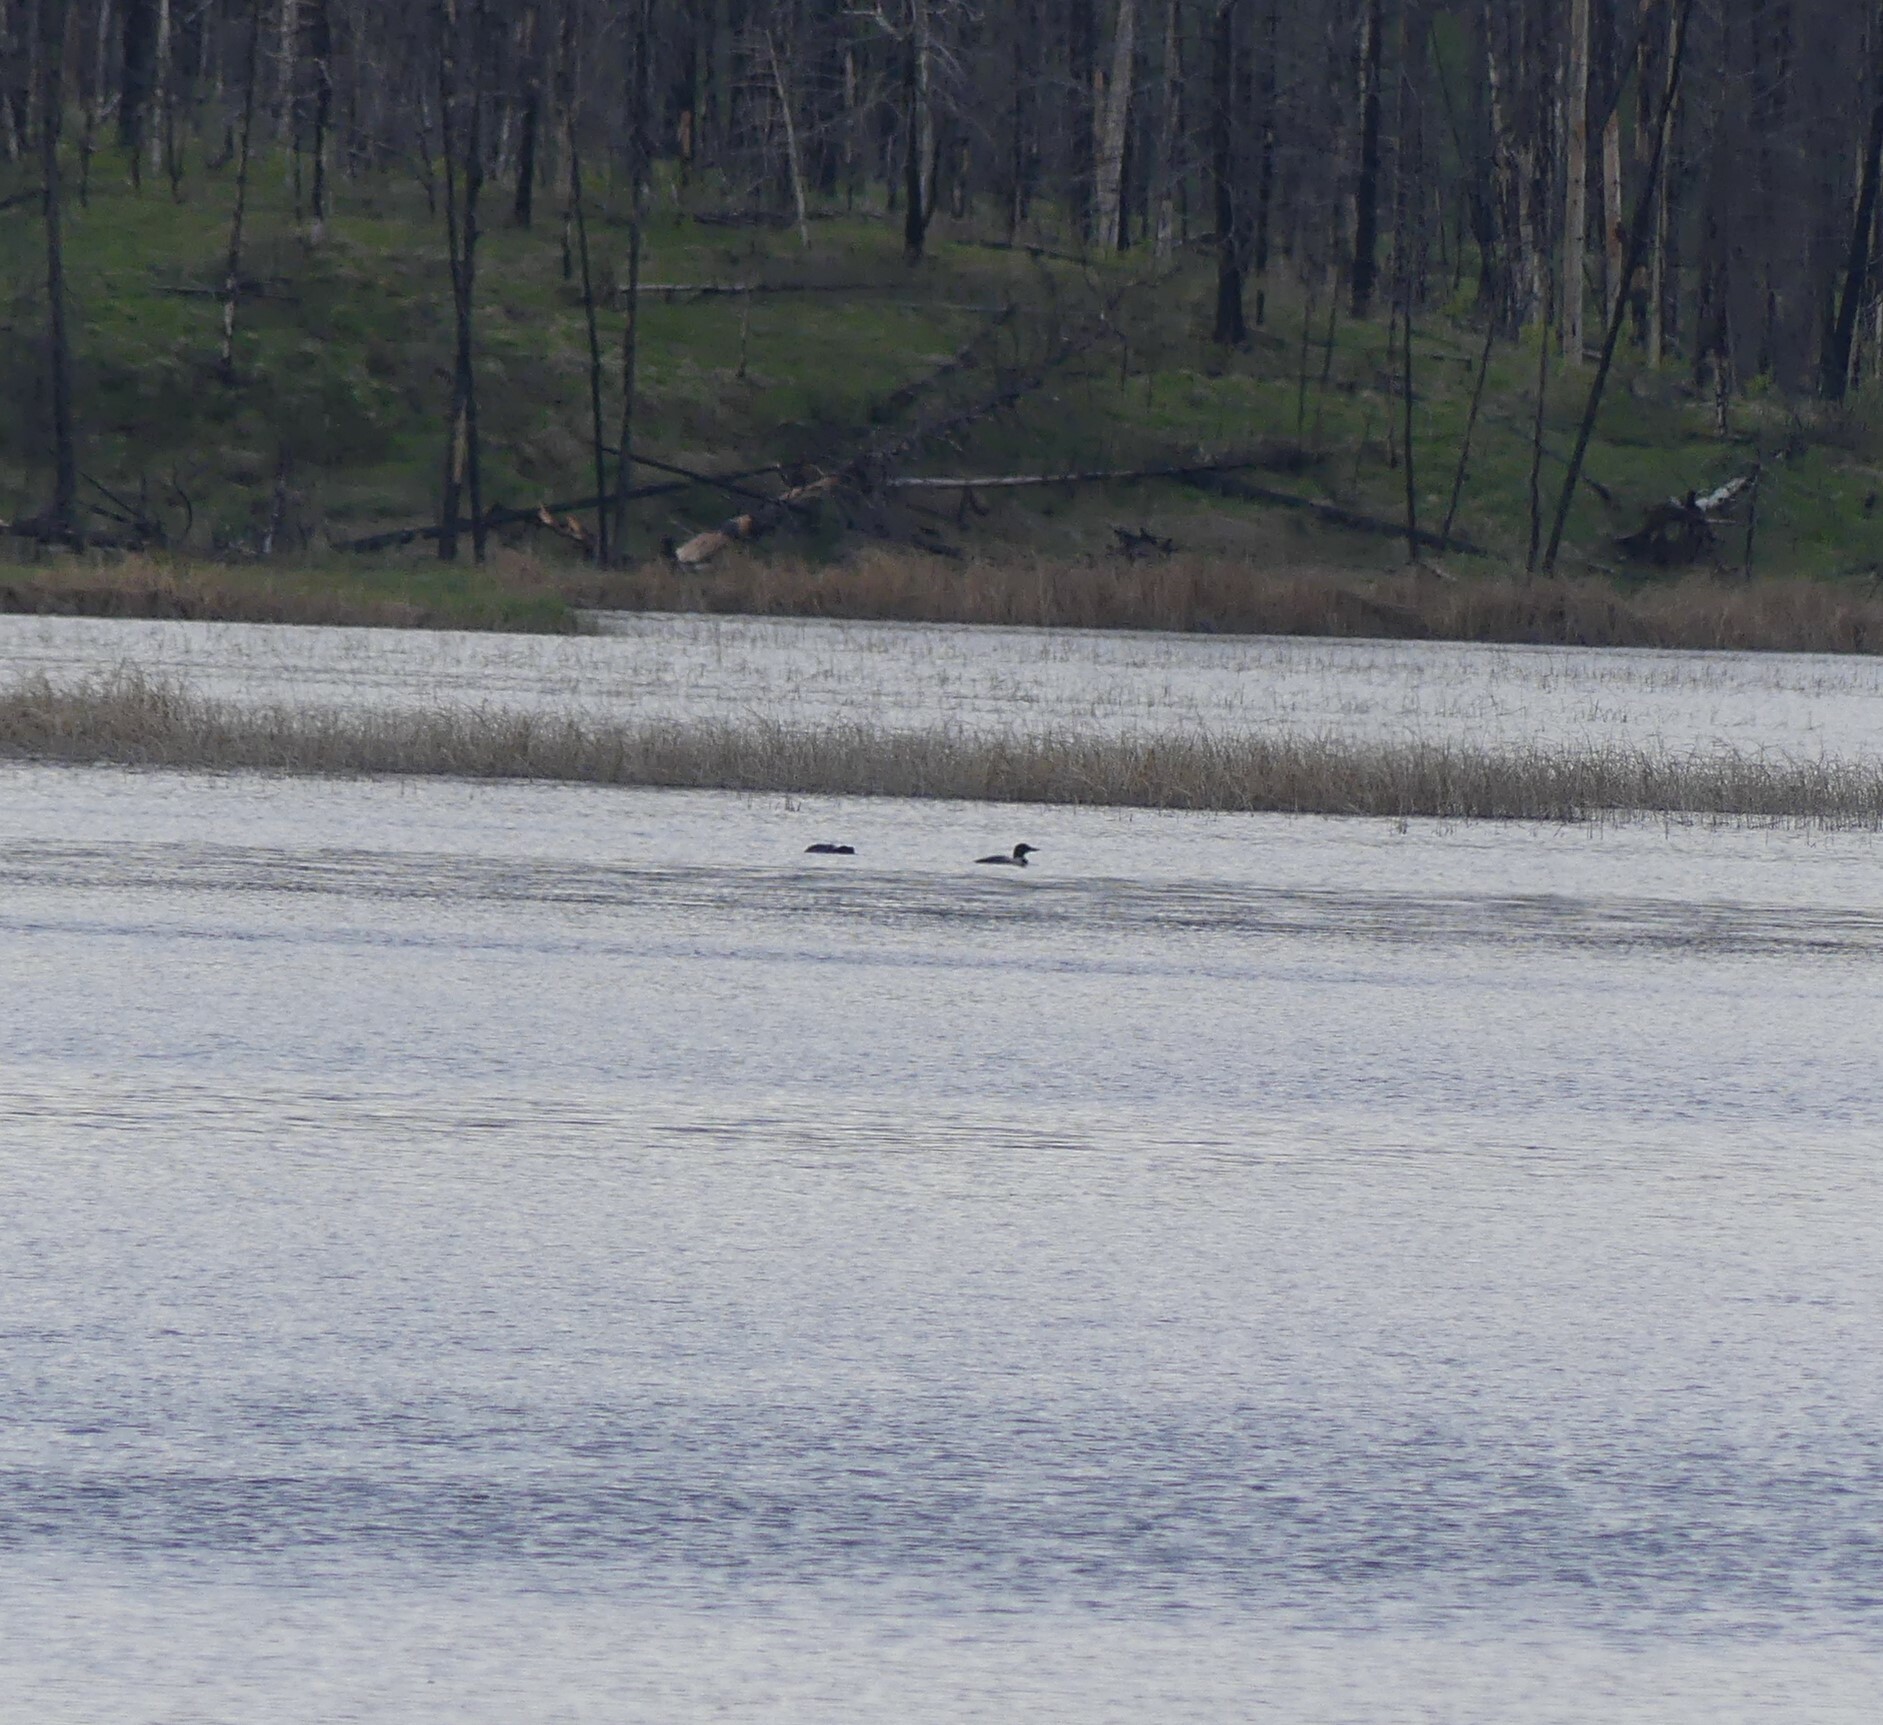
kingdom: Animalia
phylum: Chordata
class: Aves
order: Gaviiformes
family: Gaviidae
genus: Gavia
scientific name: Gavia immer
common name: Common loon
